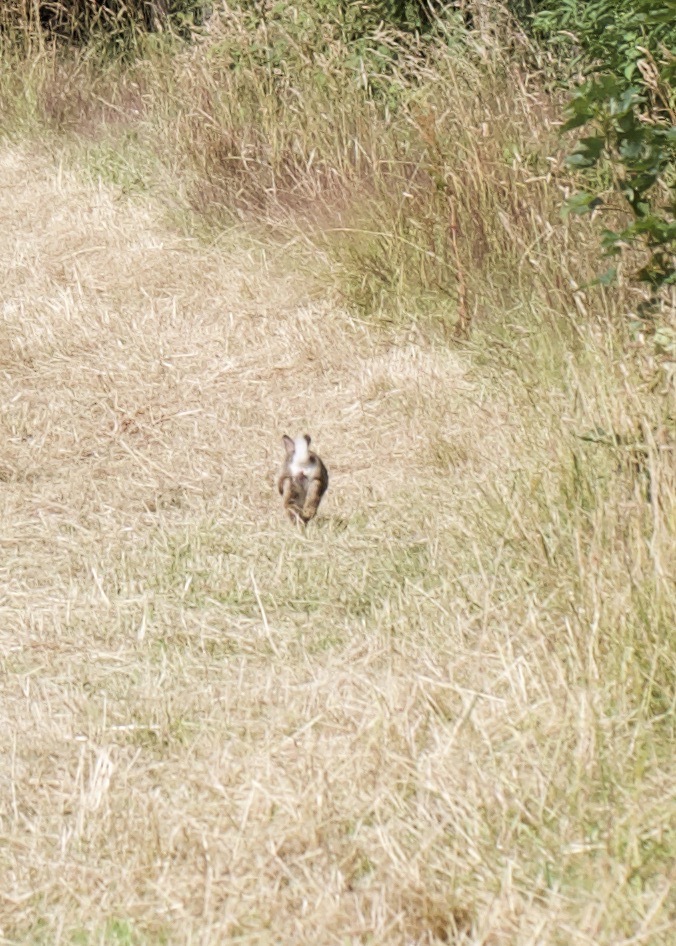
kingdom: Animalia
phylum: Chordata
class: Mammalia
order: Lagomorpha
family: Leporidae
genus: Oryctolagus
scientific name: Oryctolagus cuniculus
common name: European rabbit
